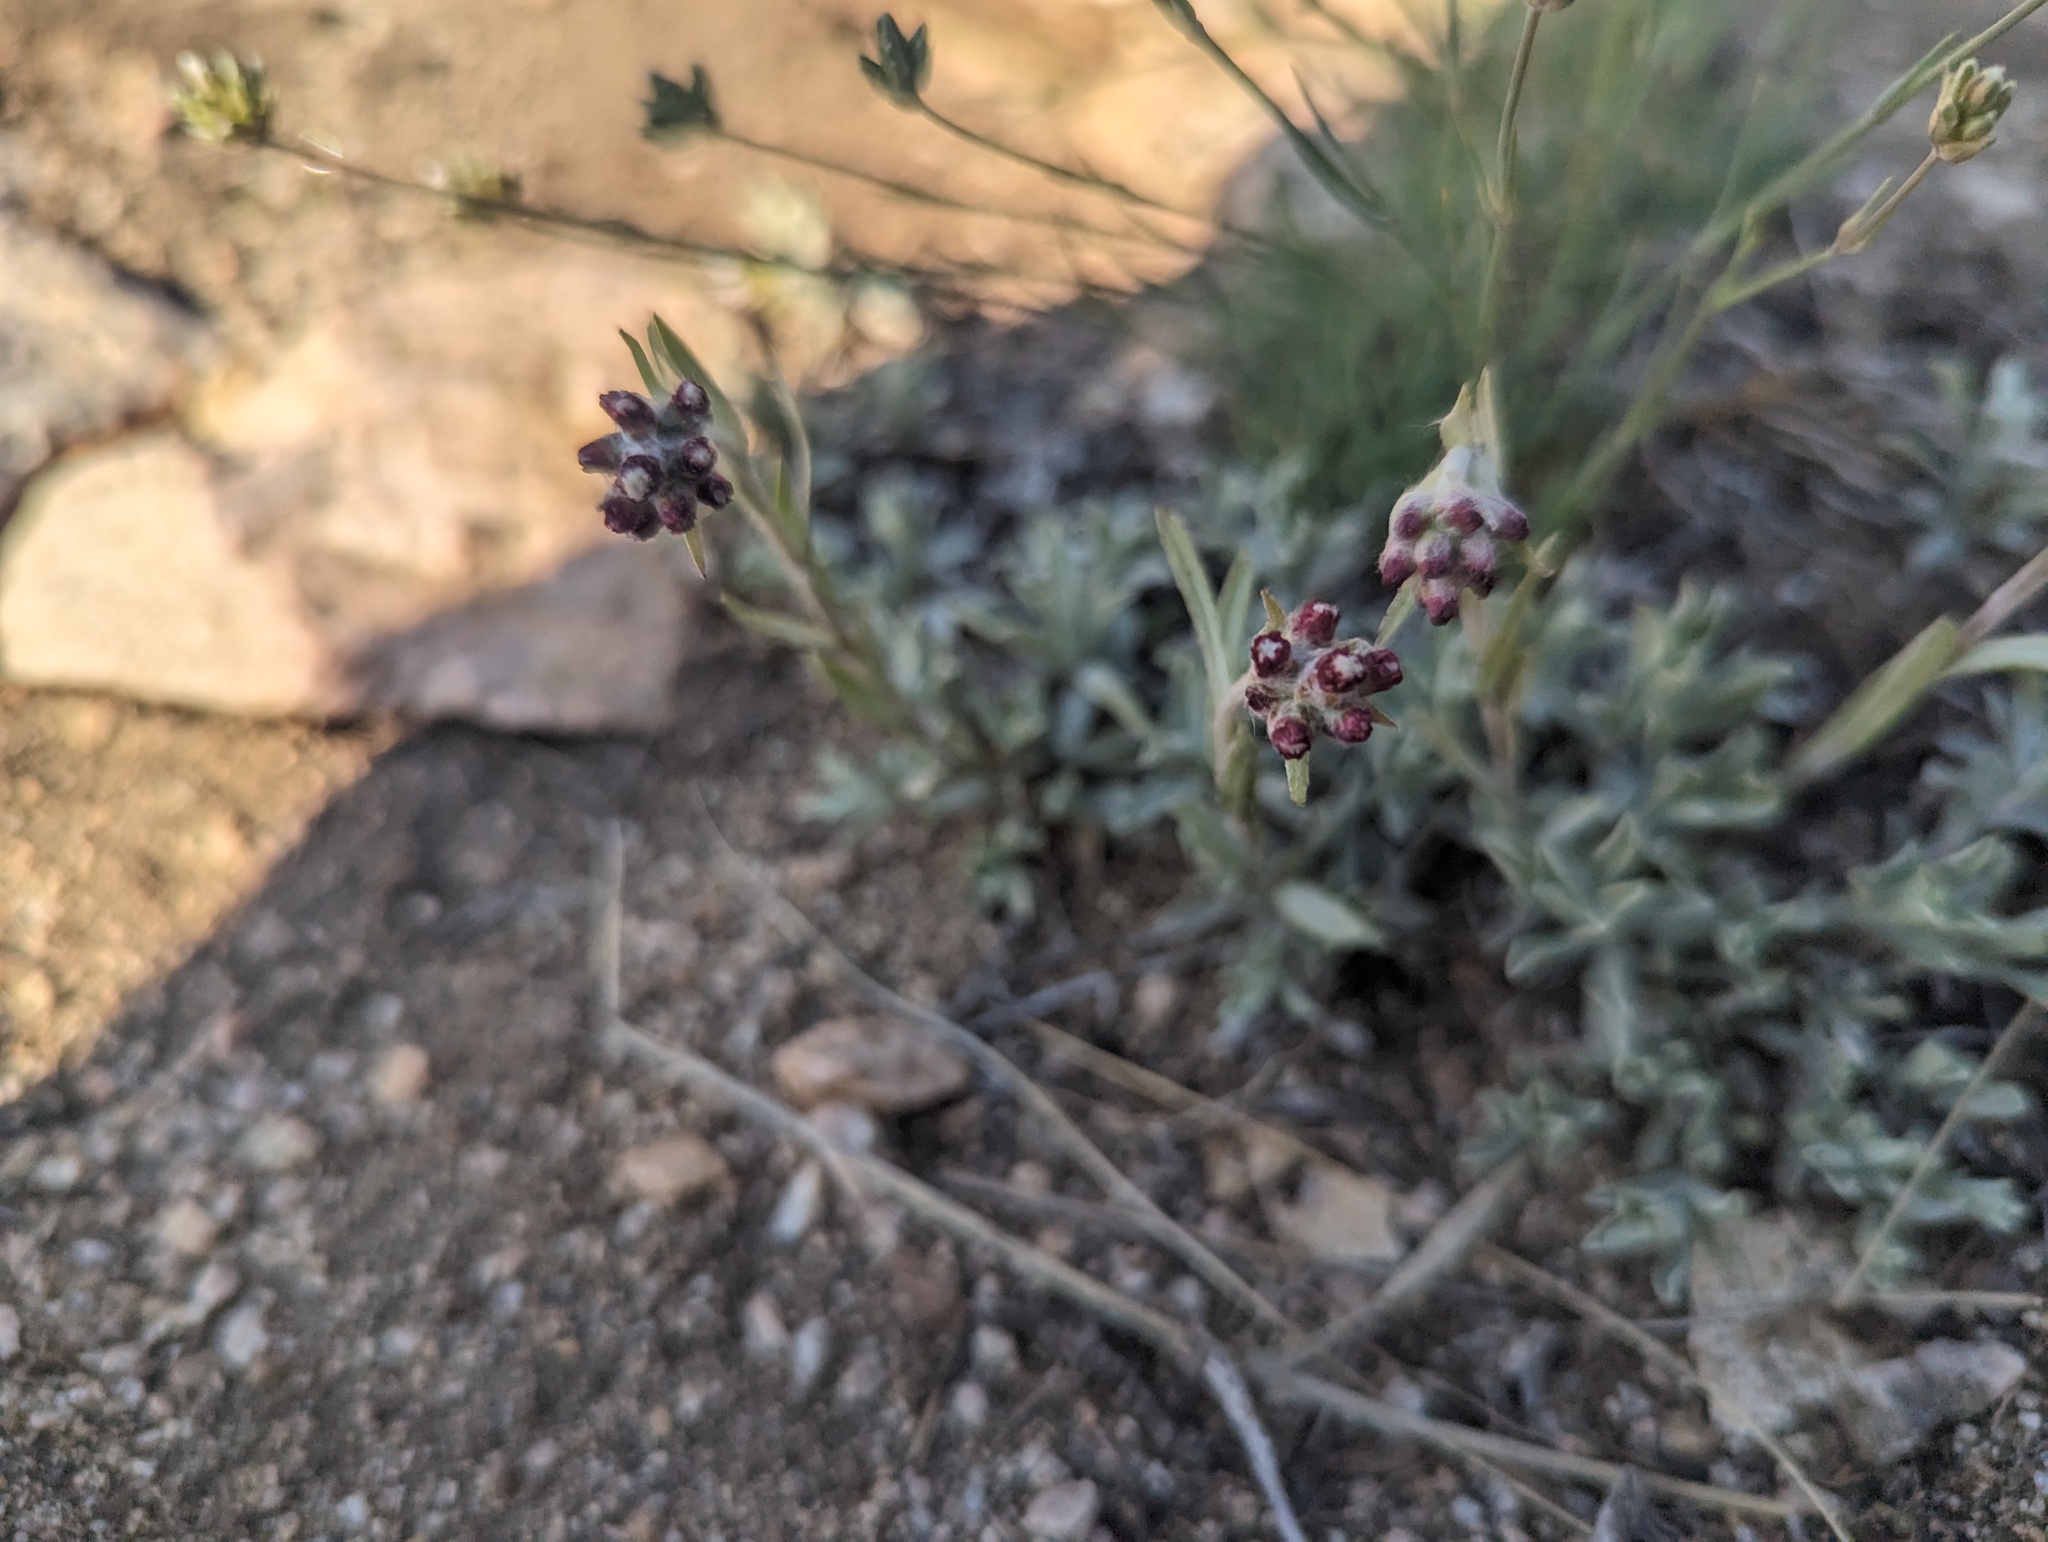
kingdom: Plantae
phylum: Tracheophyta
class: Magnoliopsida
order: Asterales
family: Asteraceae
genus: Antennaria
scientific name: Antennaria rosea
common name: Rosy pussytoes
